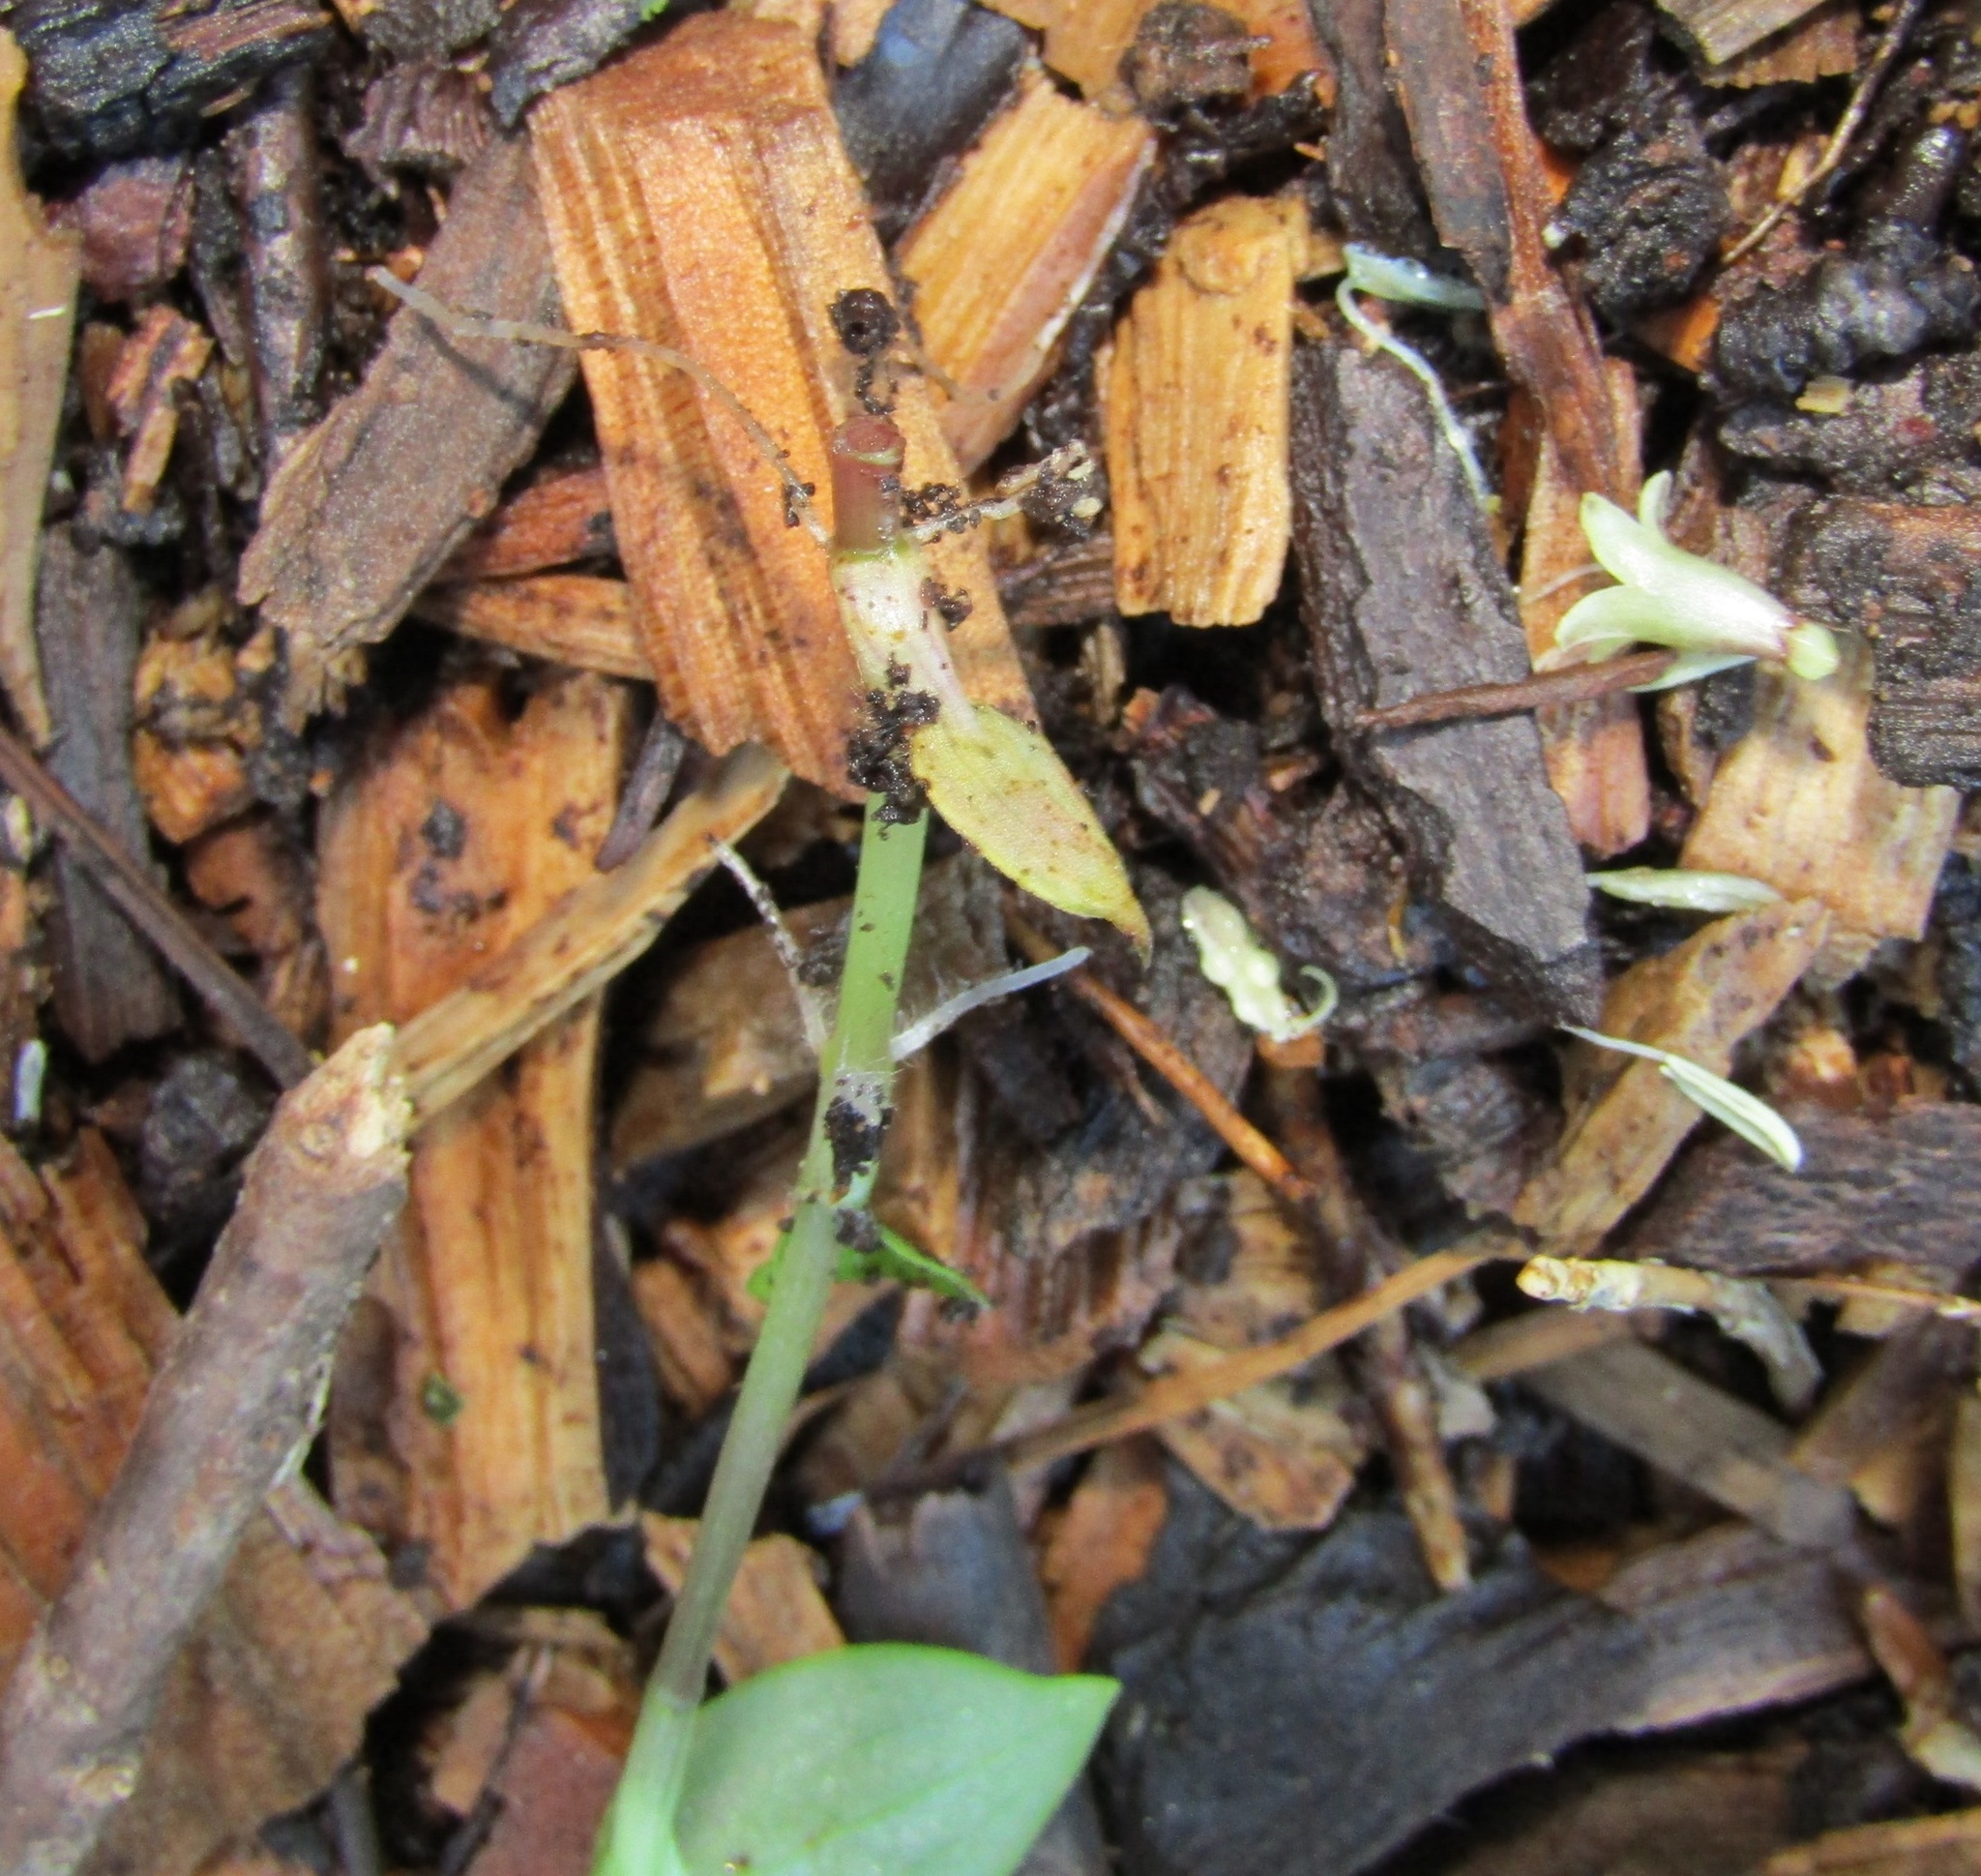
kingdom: Plantae
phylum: Tracheophyta
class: Liliopsida
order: Commelinales
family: Commelinaceae
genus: Tradescantia
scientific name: Tradescantia fluminensis
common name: Wandering-jew
